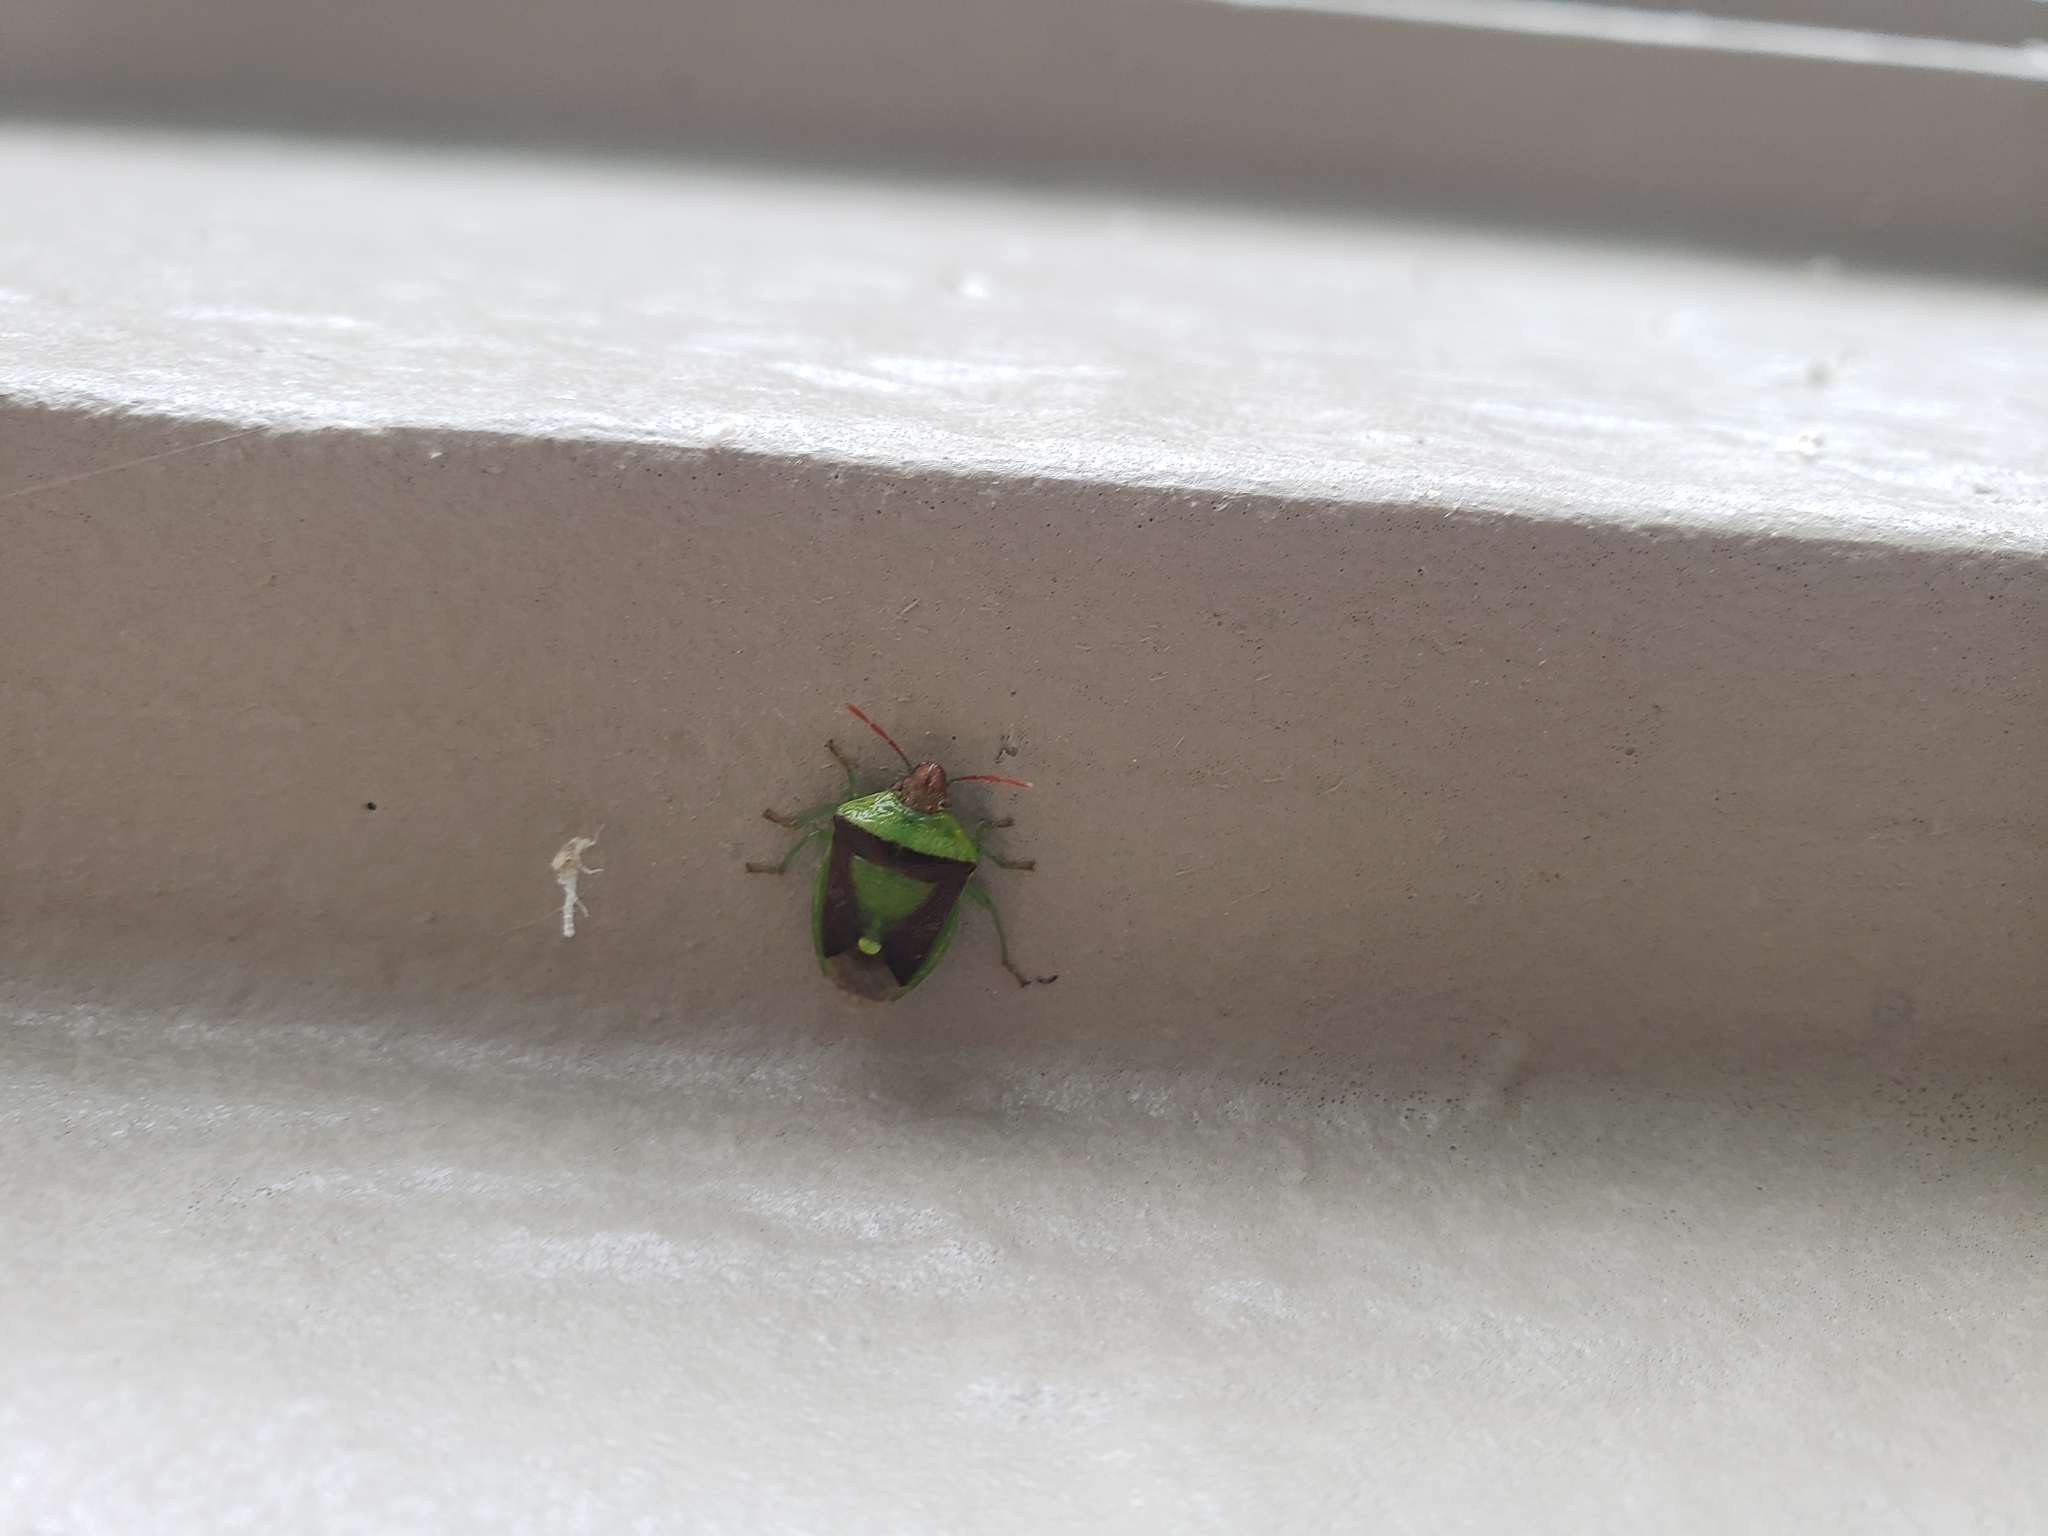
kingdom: Animalia
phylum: Arthropoda
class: Insecta
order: Hemiptera
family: Pentatomidae
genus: Banasa
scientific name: Banasa dimidiata
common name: Green burgundy stink bug
